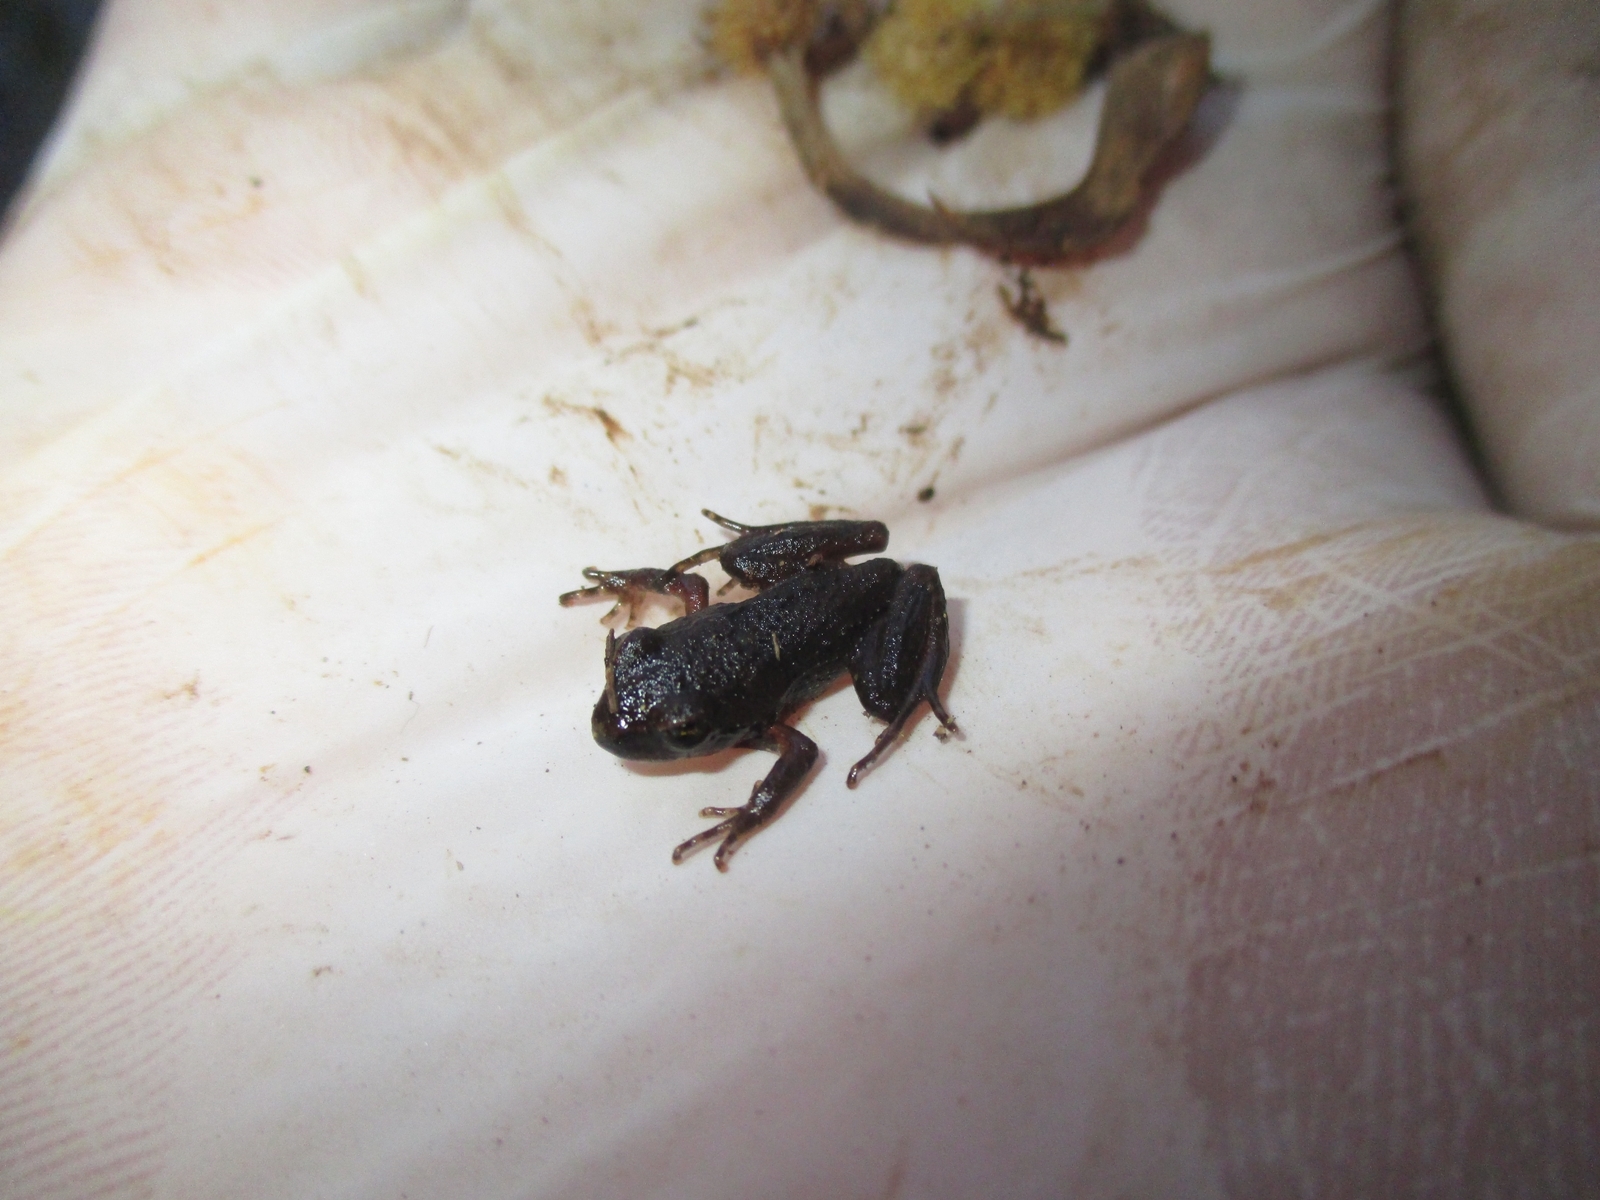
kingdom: Animalia
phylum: Chordata
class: Amphibia
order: Anura
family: Batrachylidae
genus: Batrachyla
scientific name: Batrachyla taeniata
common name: Banded wood frog
